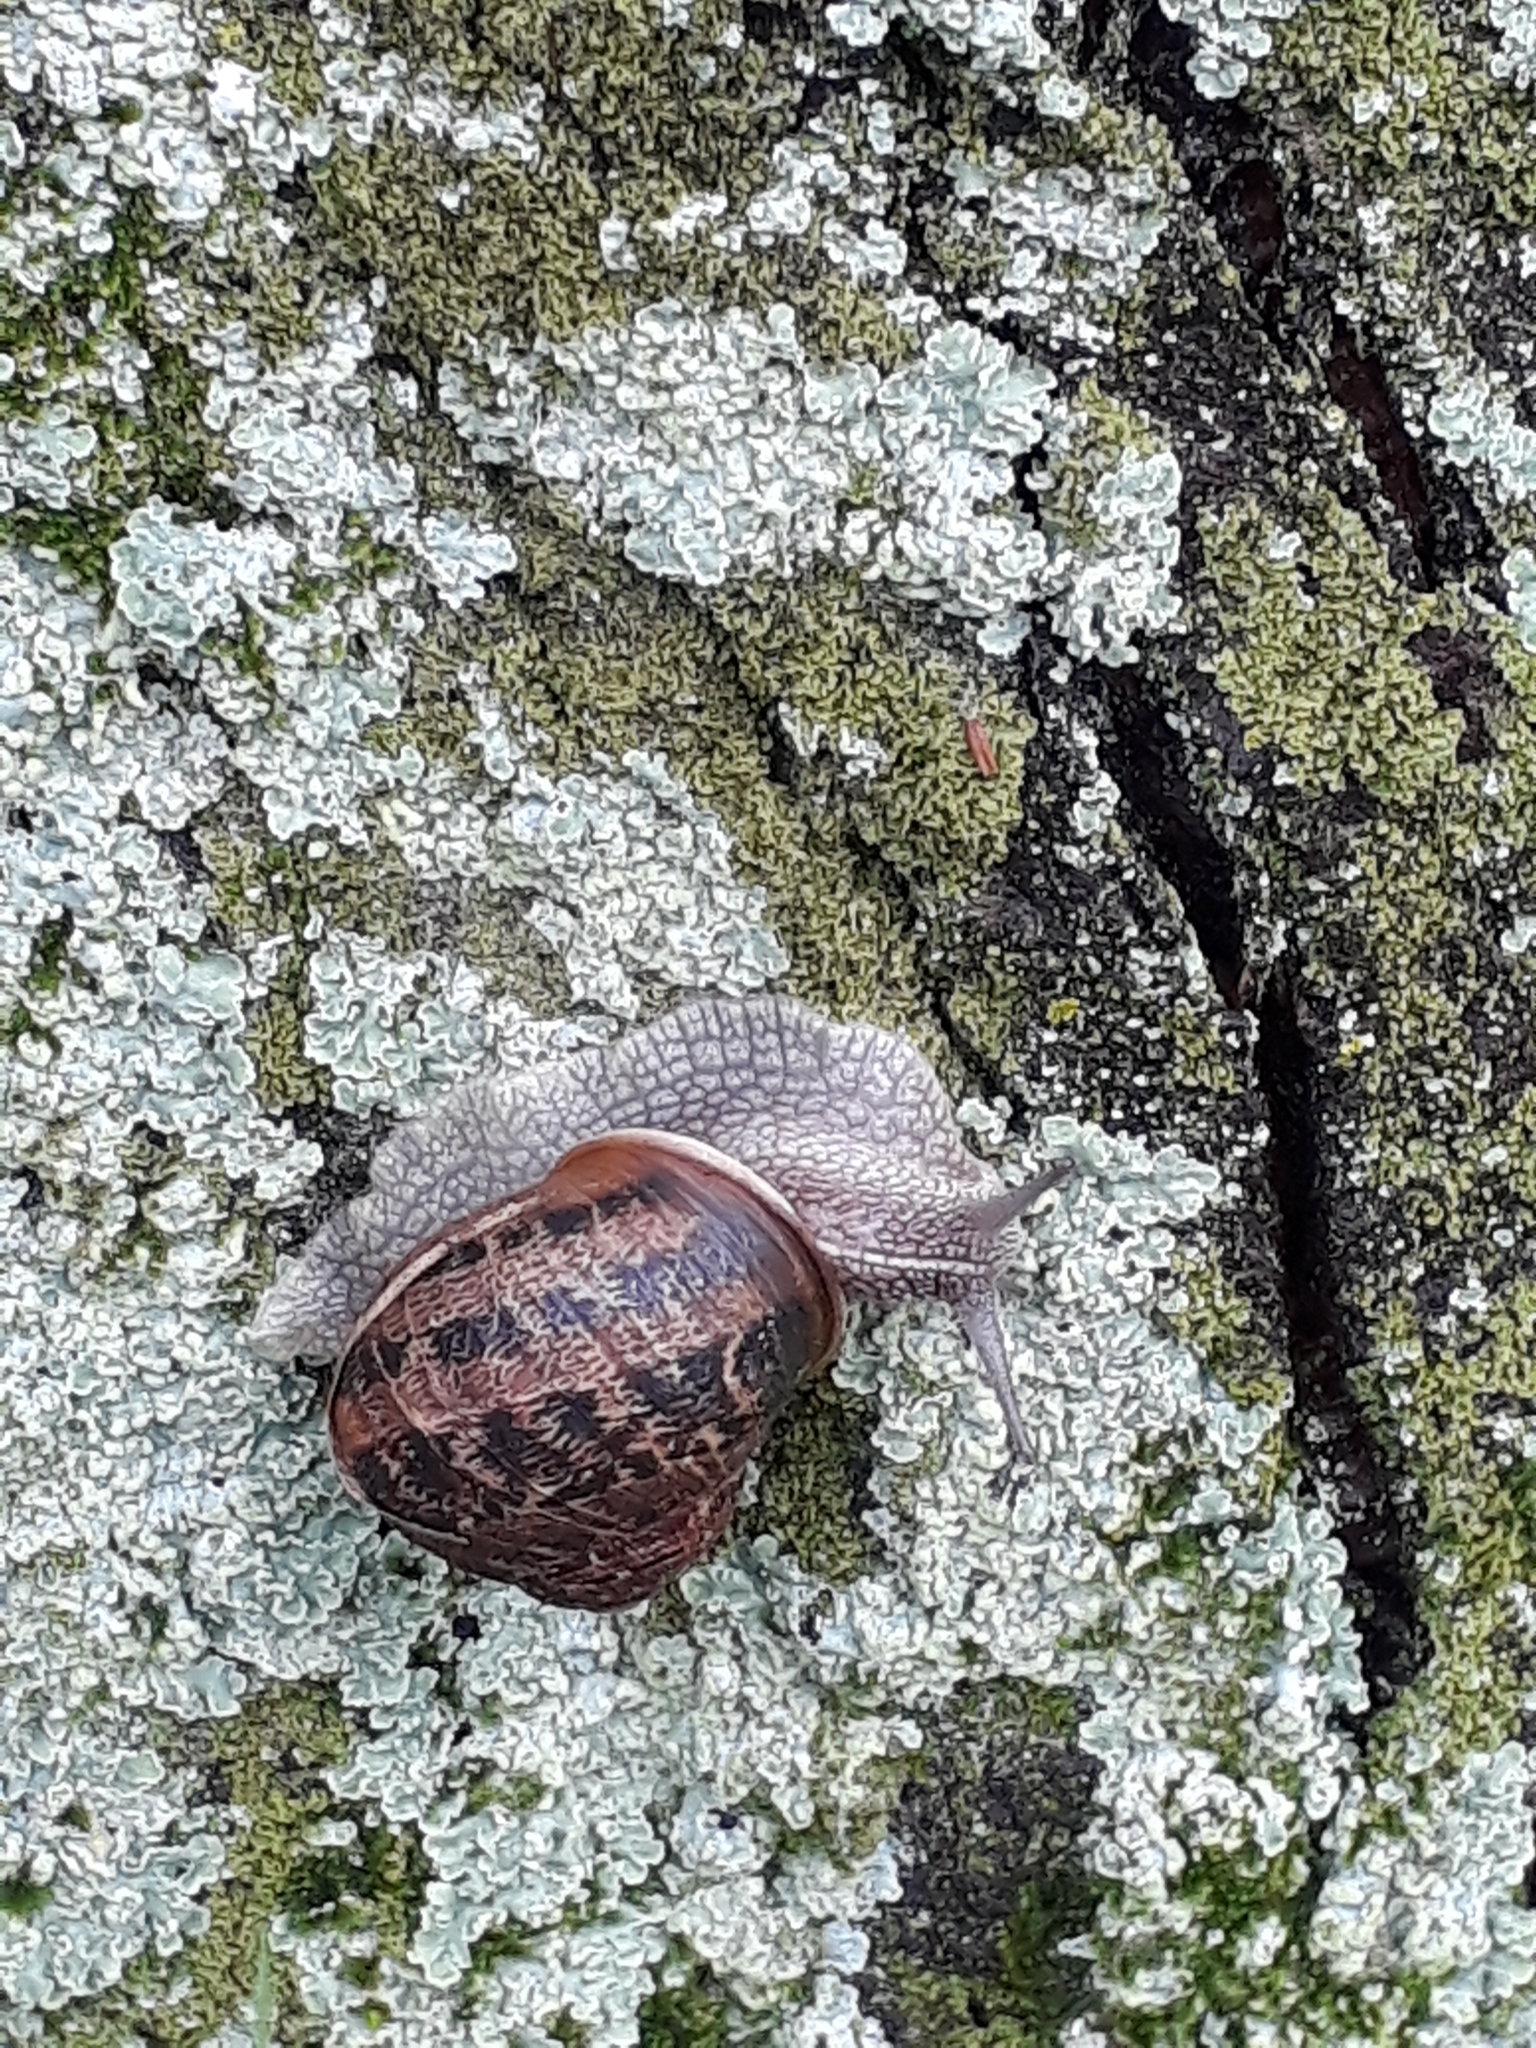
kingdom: Animalia
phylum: Mollusca
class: Gastropoda
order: Stylommatophora
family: Helicidae
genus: Cornu
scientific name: Cornu aspersum
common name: Brown garden snail
